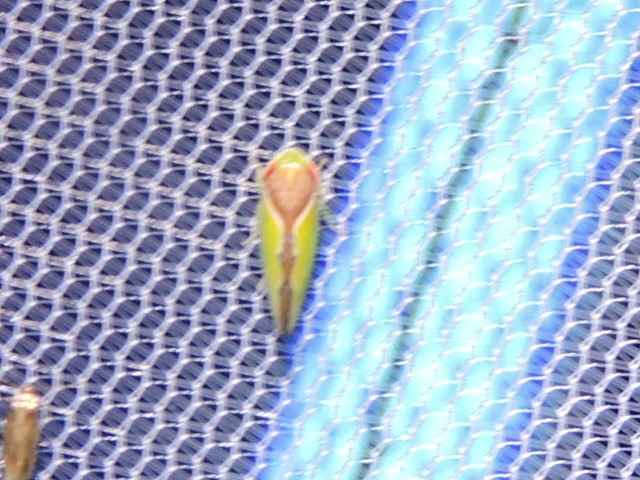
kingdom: Animalia
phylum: Arthropoda
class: Insecta
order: Hemiptera
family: Cicadellidae
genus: Omansobara ing
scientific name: Omansobara ing Omansobara palliolata
